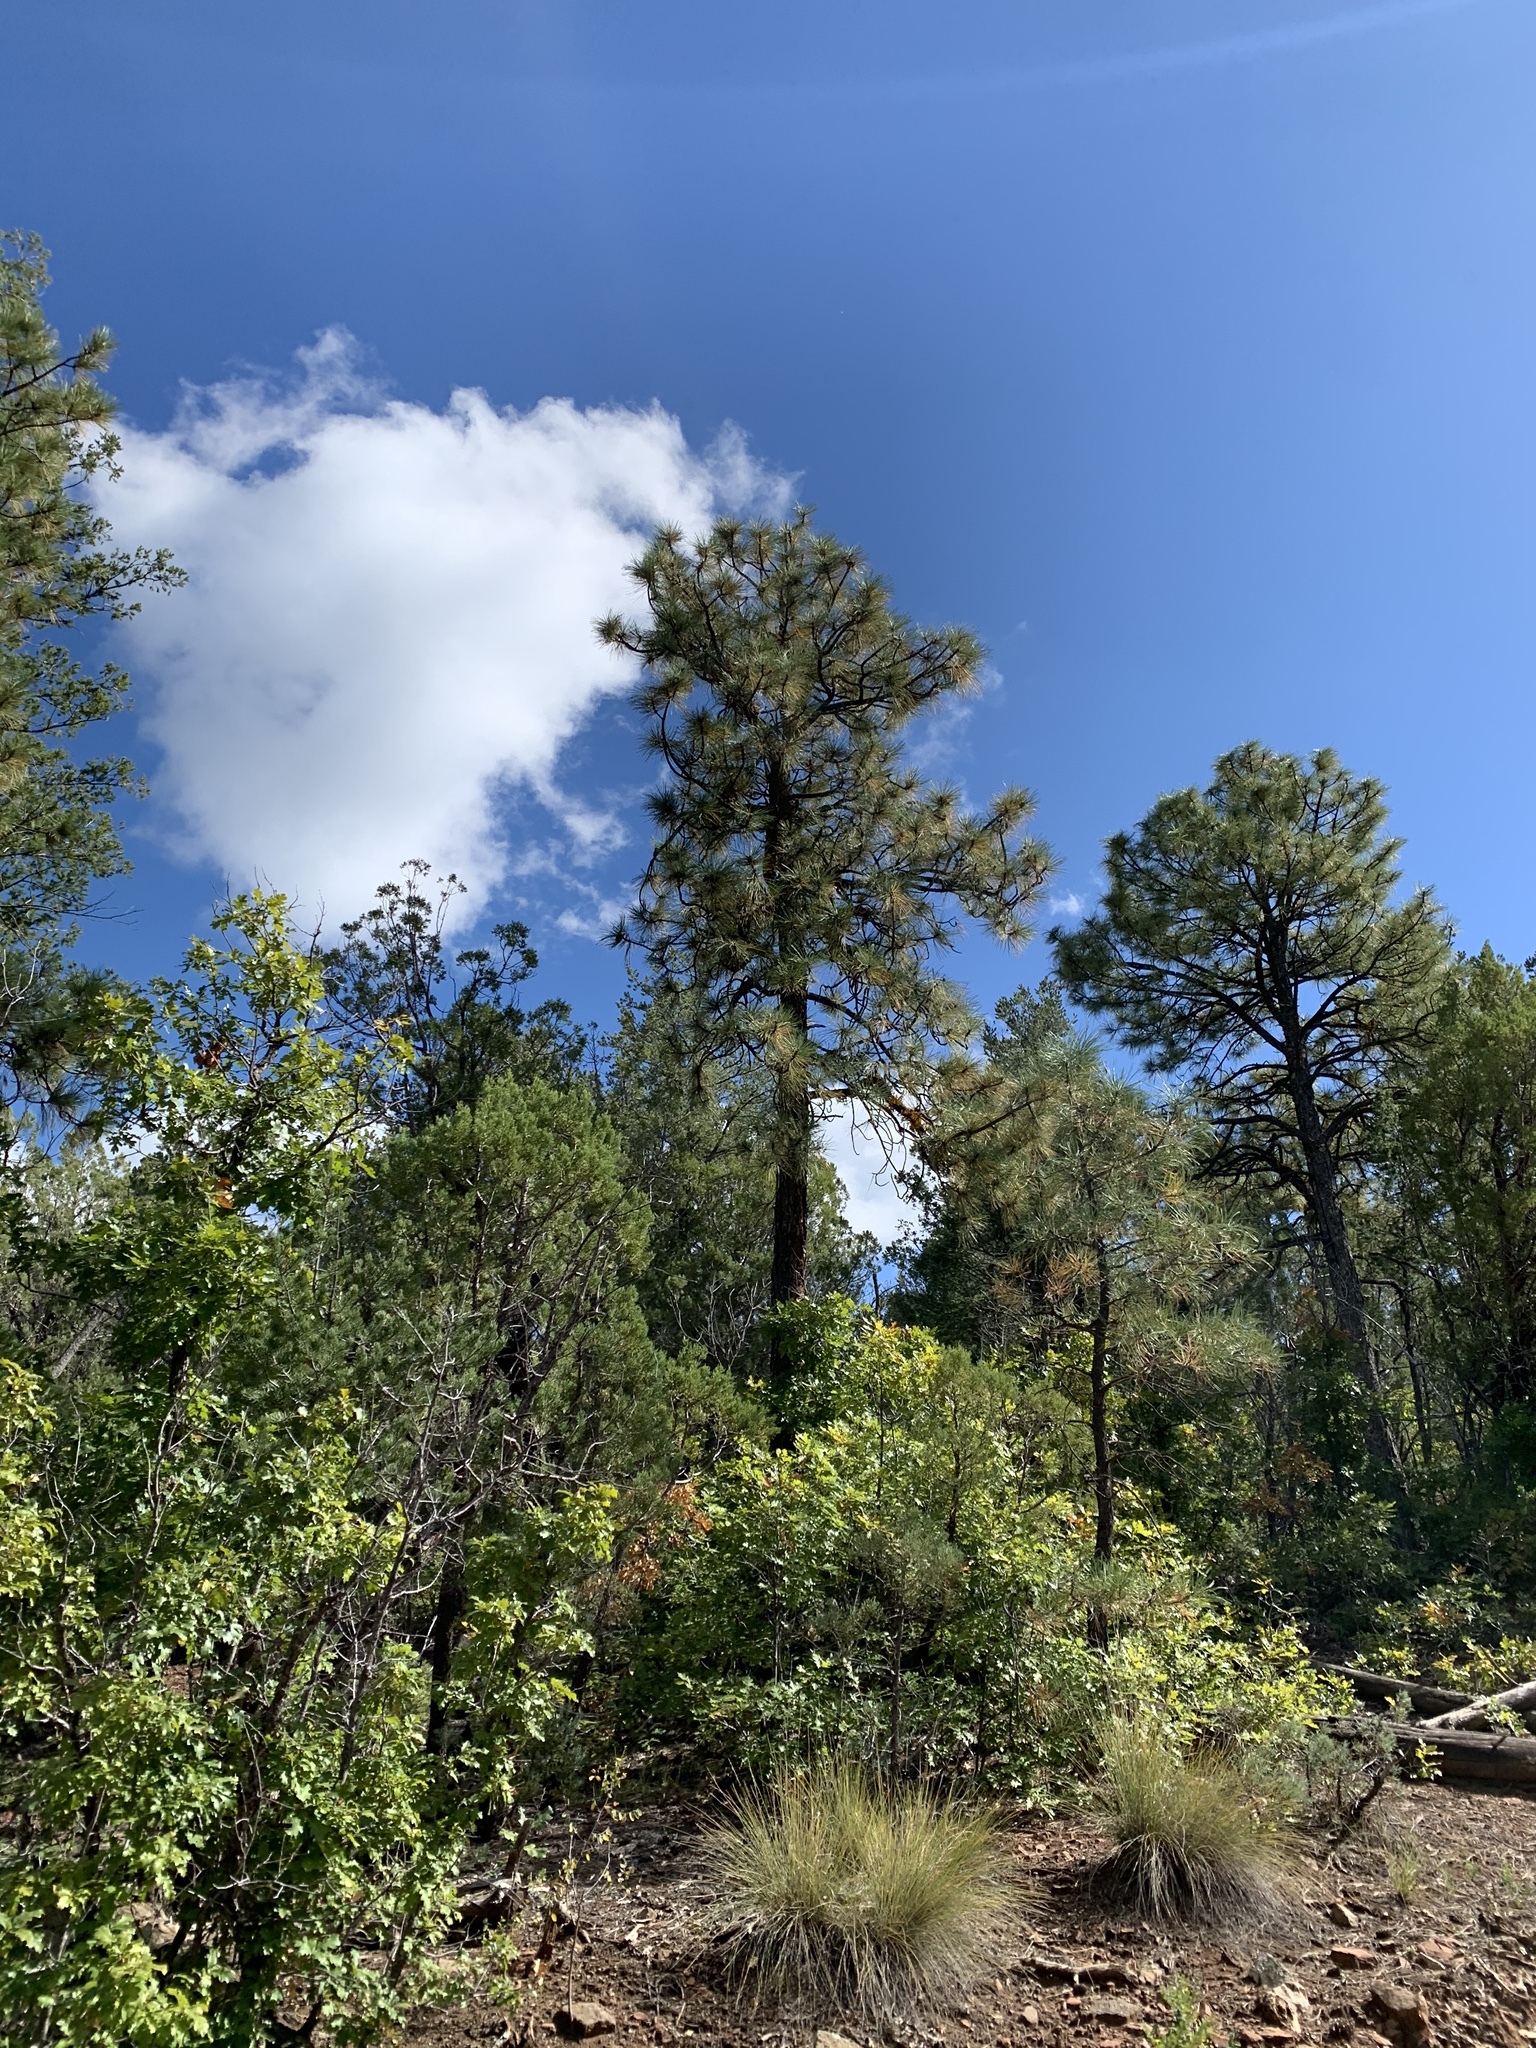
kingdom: Plantae
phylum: Tracheophyta
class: Pinopsida
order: Pinales
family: Pinaceae
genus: Pinus
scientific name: Pinus ponderosa
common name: Western yellow-pine
